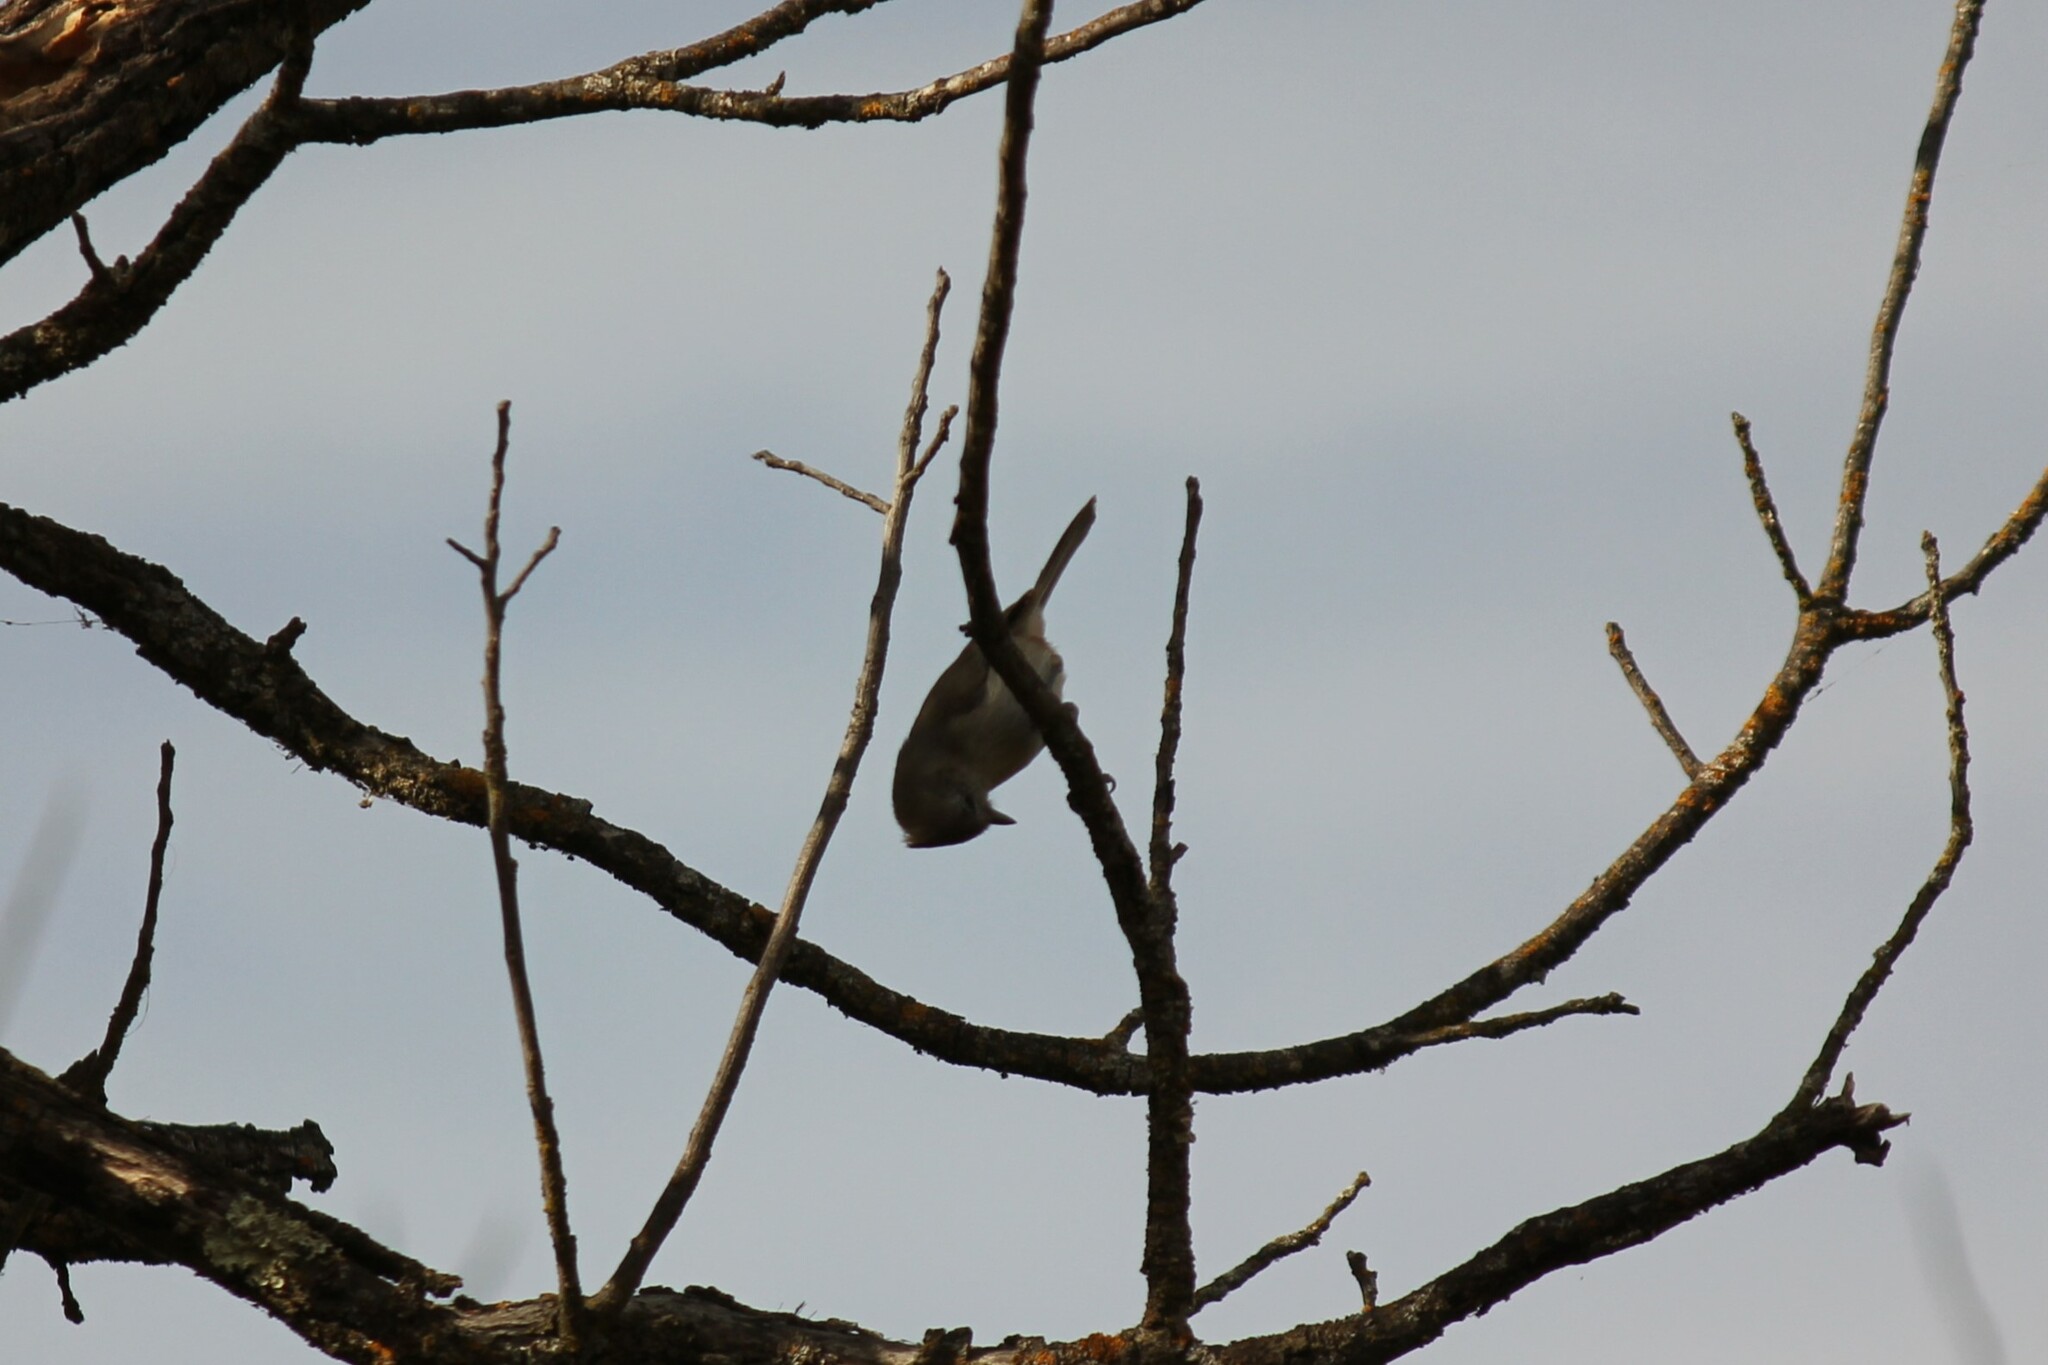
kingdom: Animalia
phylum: Chordata
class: Aves
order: Passeriformes
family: Paridae
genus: Baeolophus
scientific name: Baeolophus inornatus
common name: Oak titmouse
